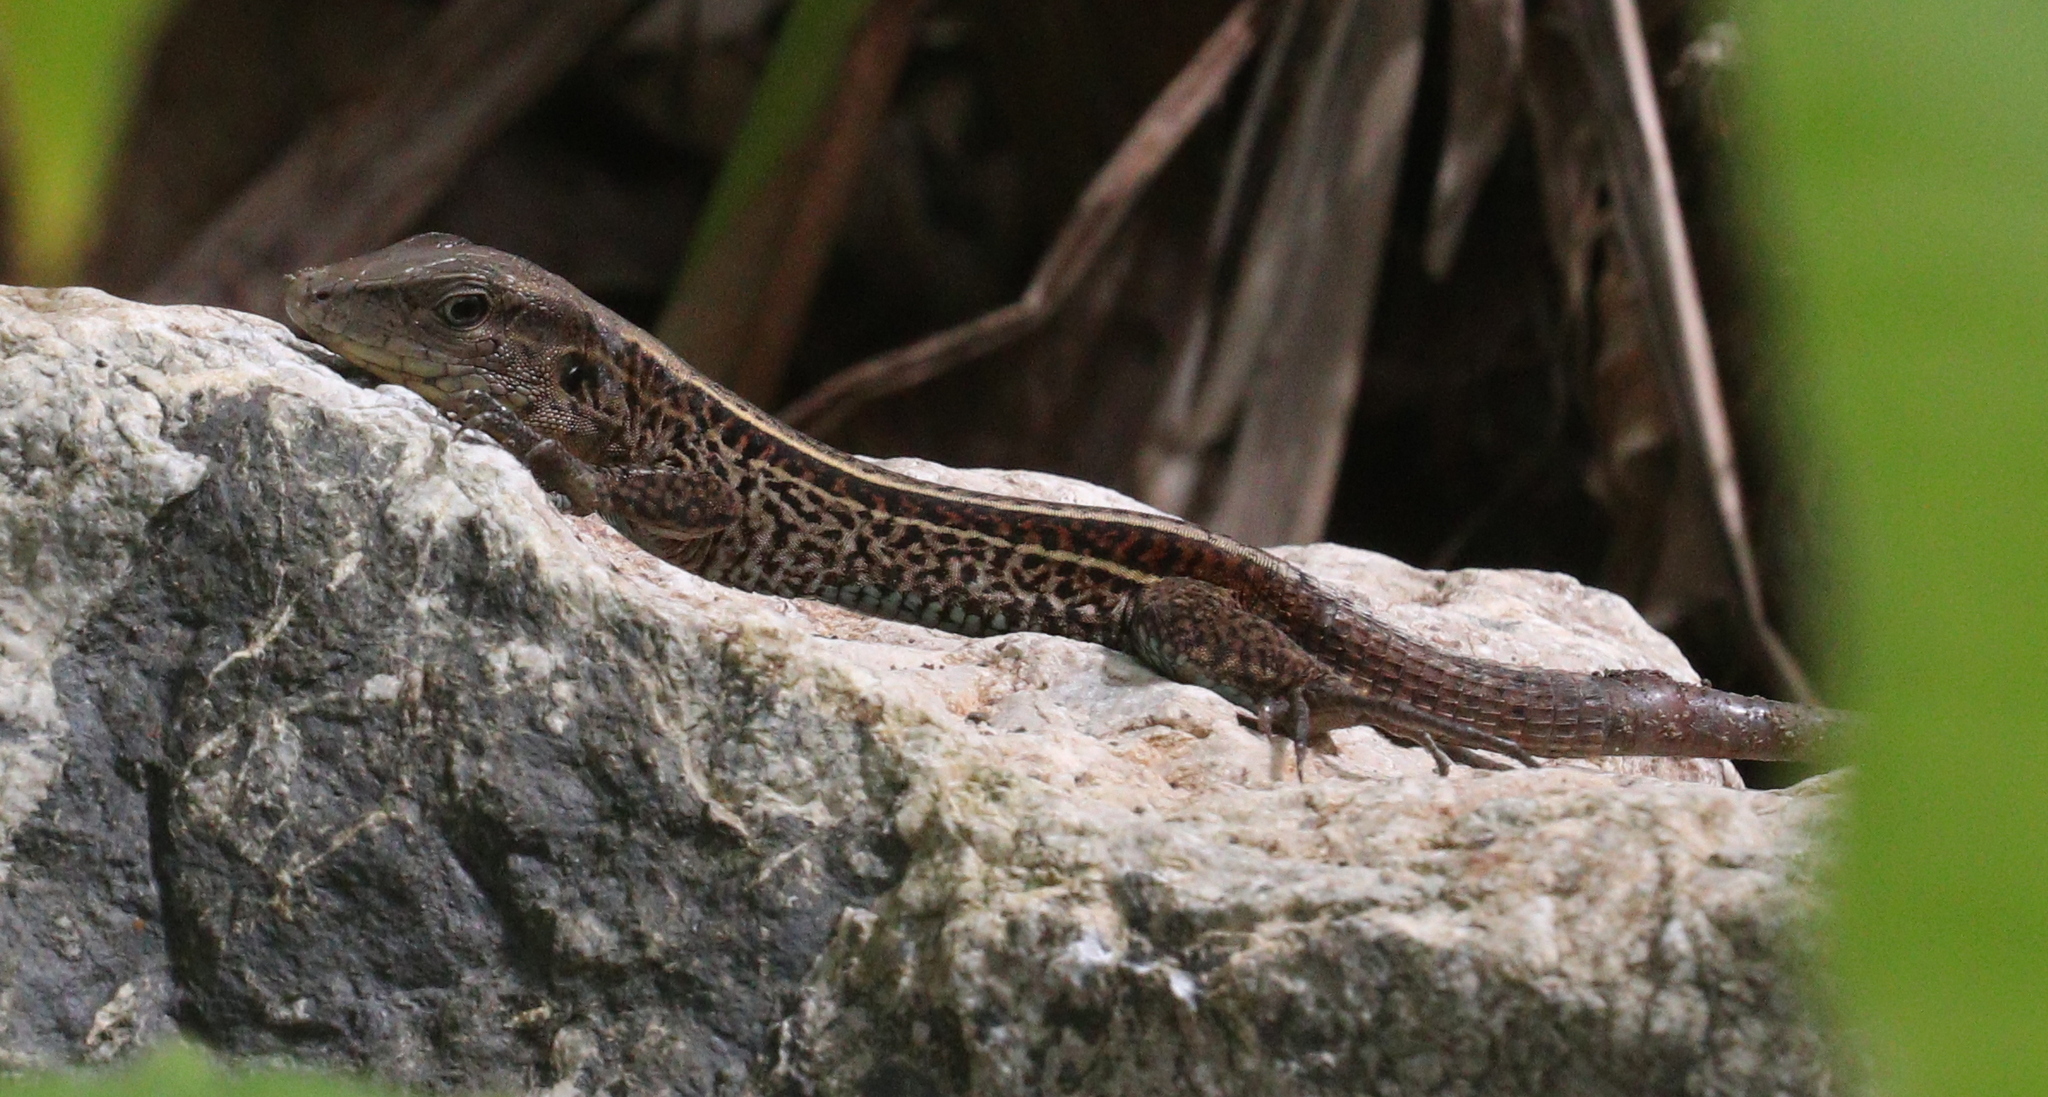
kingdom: Animalia
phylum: Chordata
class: Squamata
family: Teiidae
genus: Holcosus
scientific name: Holcosus quadrilineatus
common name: Four-lined ameiva
